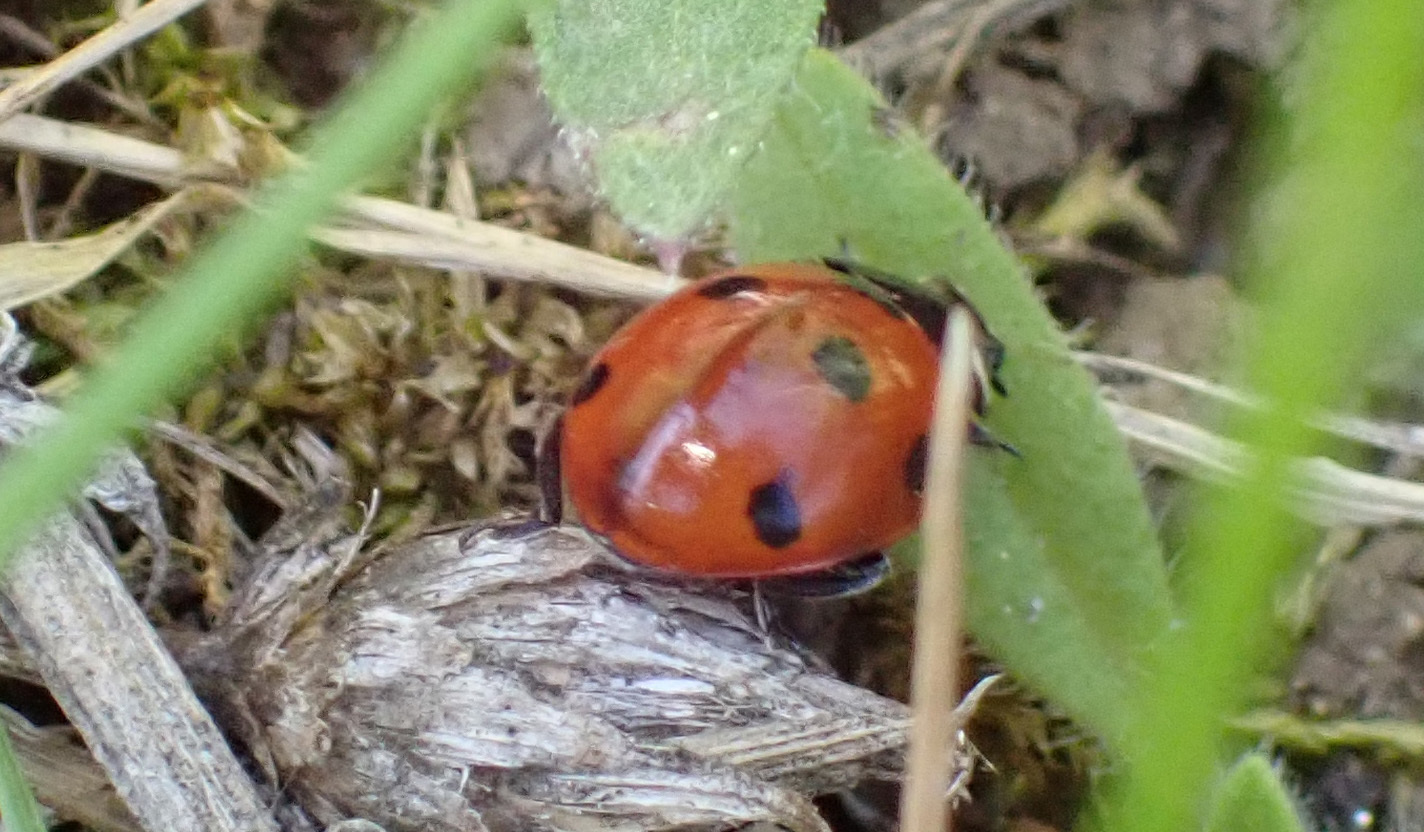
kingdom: Animalia
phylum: Arthropoda
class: Insecta
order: Coleoptera
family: Coccinellidae
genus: Coccinella
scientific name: Coccinella septempunctata
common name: Sevenspotted lady beetle
